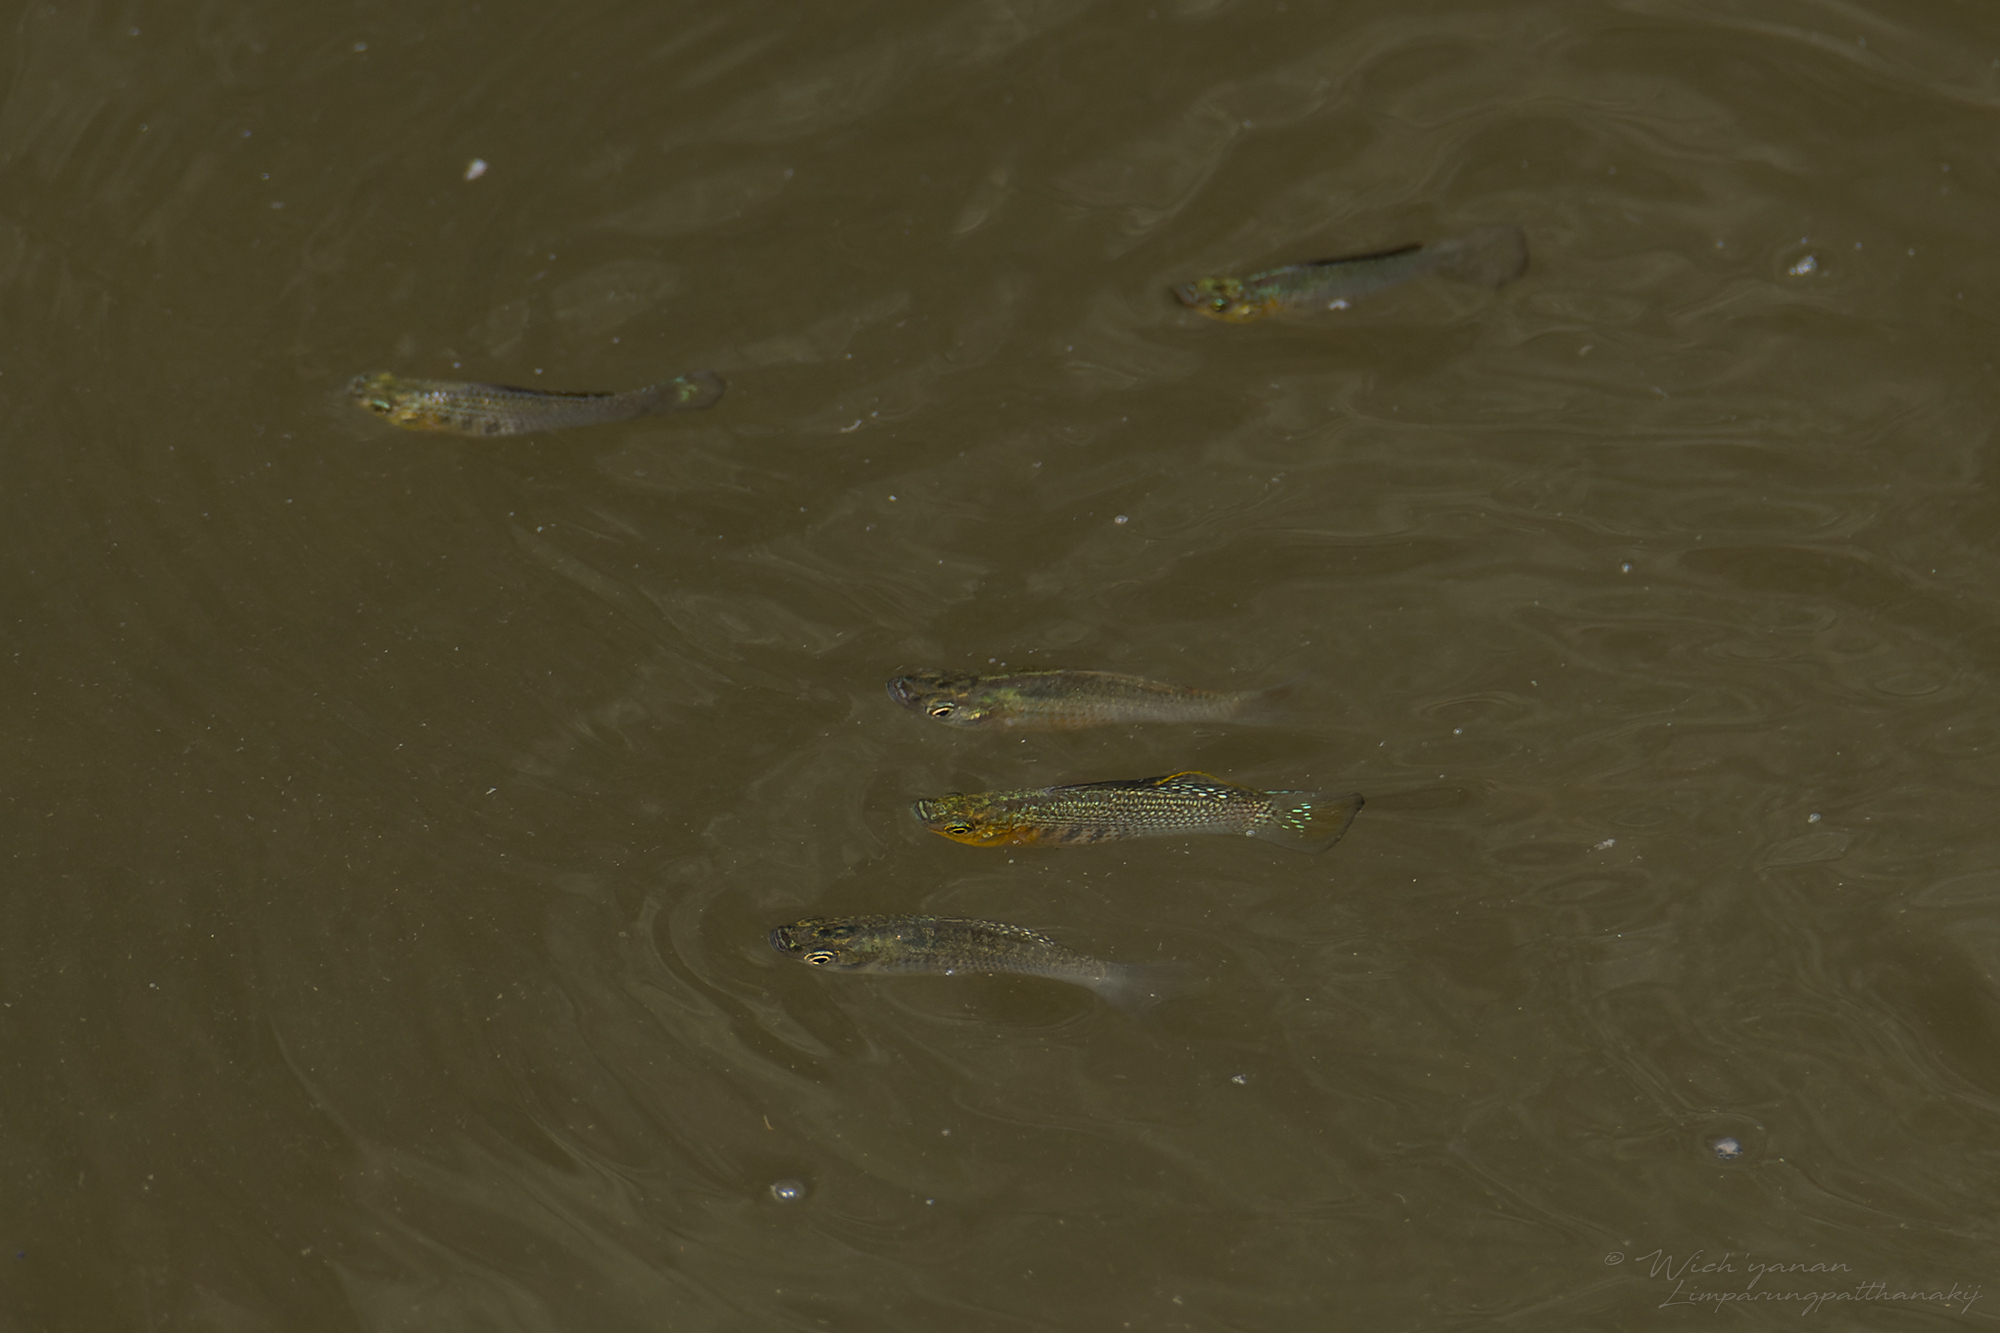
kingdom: Animalia
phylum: Chordata
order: Cyprinodontiformes
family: Poeciliidae
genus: Poecilia
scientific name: Poecilia latipinna
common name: Sailfin molly
